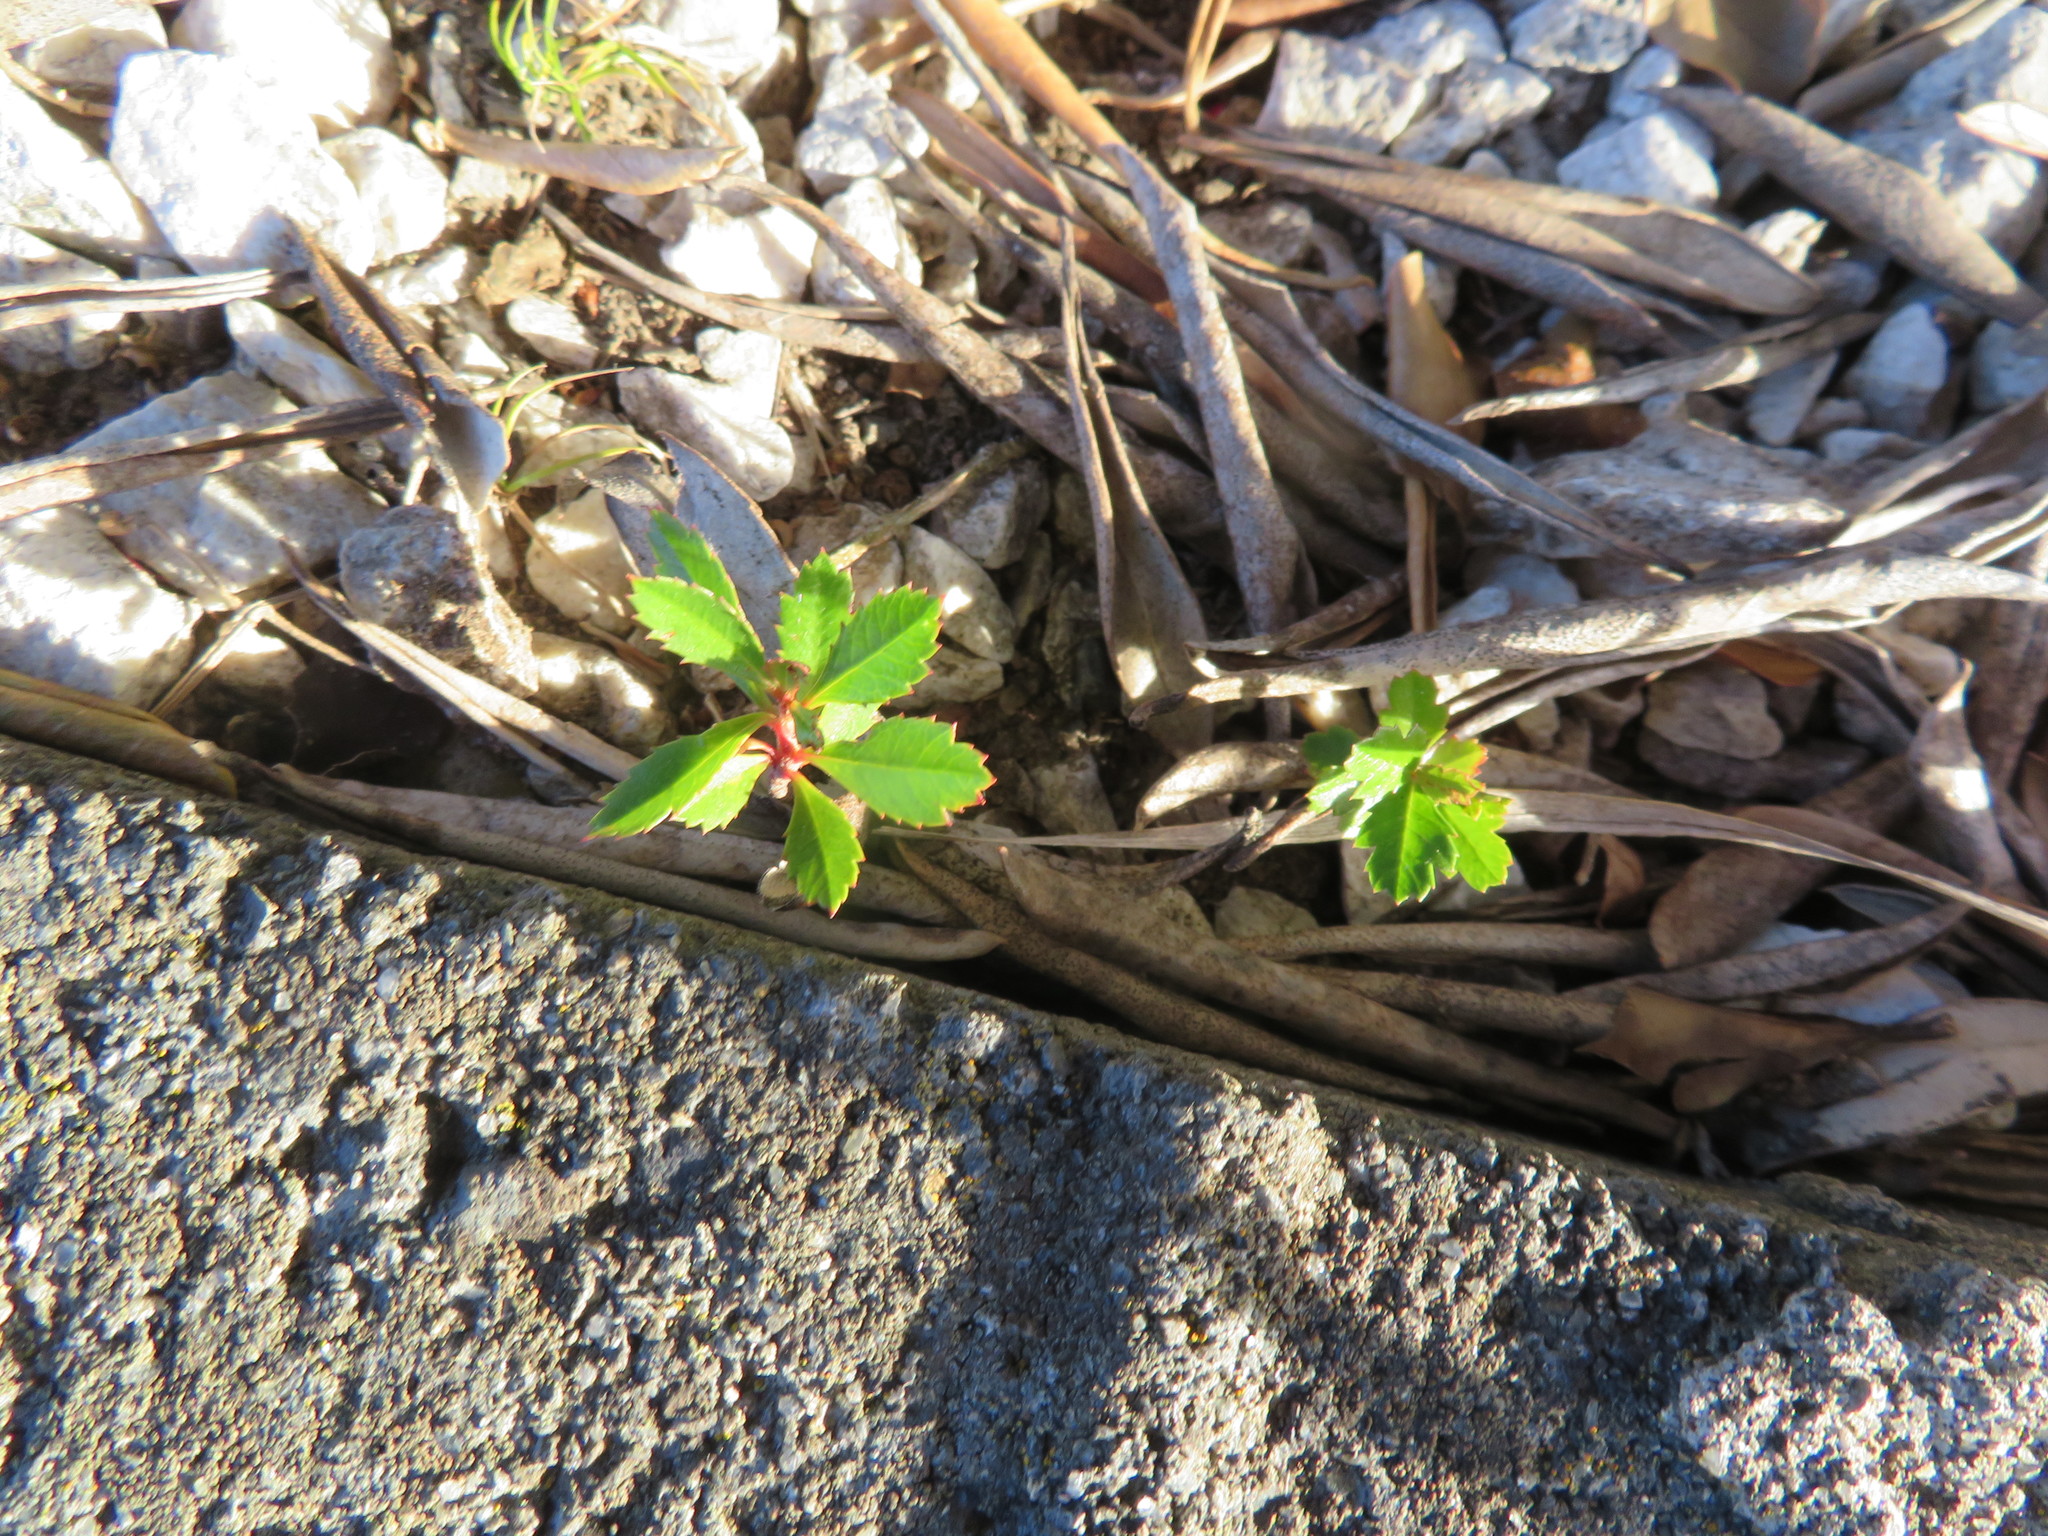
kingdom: Plantae
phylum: Tracheophyta
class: Magnoliopsida
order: Ericales
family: Ericaceae
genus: Arbutus
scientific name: Arbutus unedo
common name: Strawberry-tree
